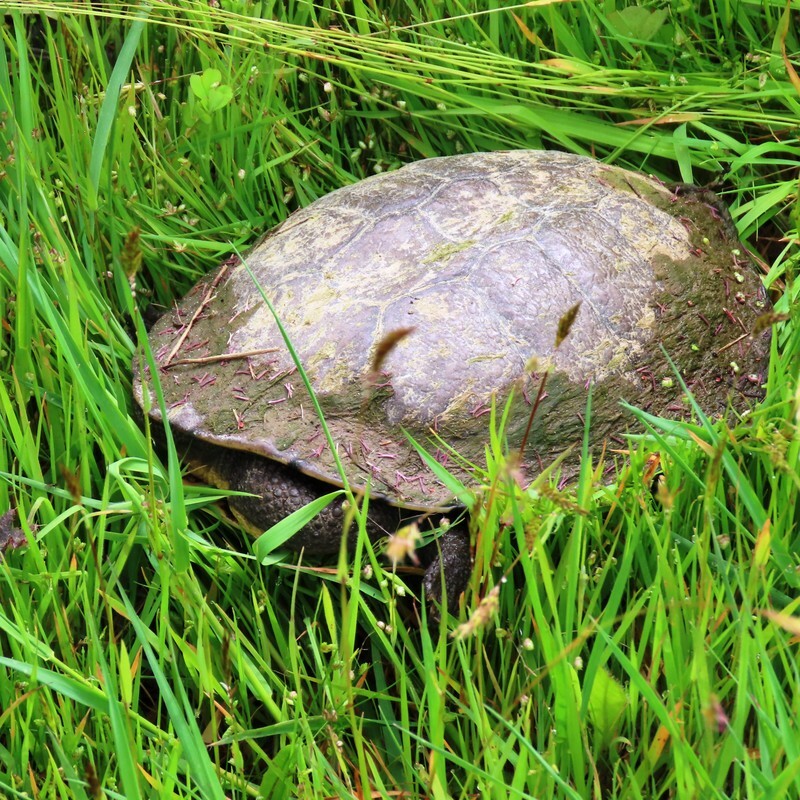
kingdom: Animalia
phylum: Chordata
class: Testudines
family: Chelidae
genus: Chelodina
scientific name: Chelodina longicollis
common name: Eastern snake-necked turtle
